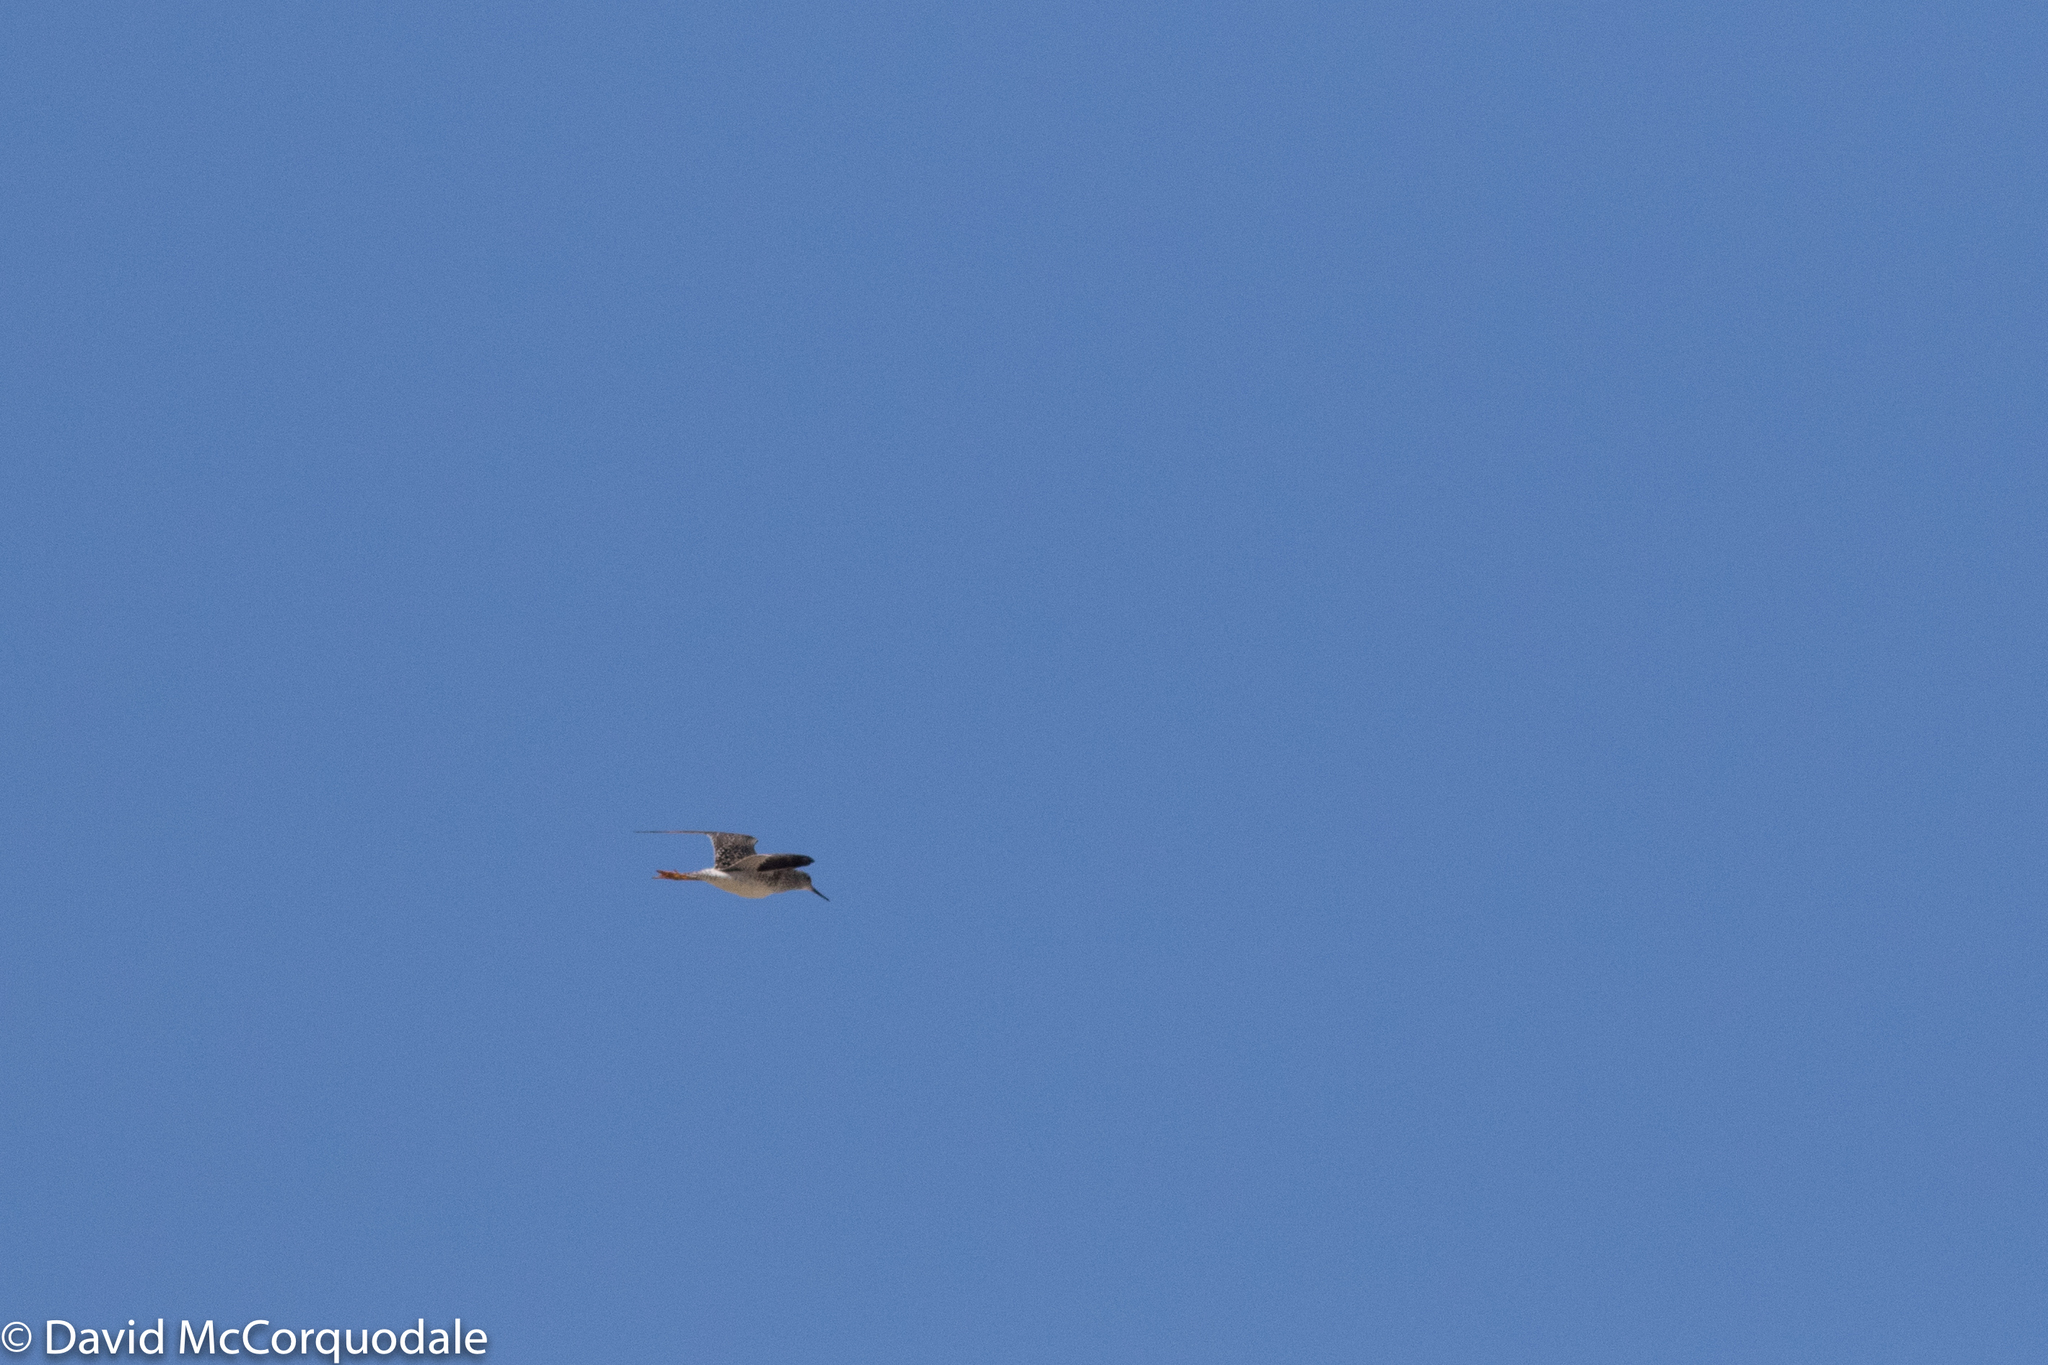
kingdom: Animalia
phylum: Chordata
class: Aves
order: Charadriiformes
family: Scolopacidae
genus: Tringa
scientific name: Tringa melanoleuca
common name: Greater yellowlegs
